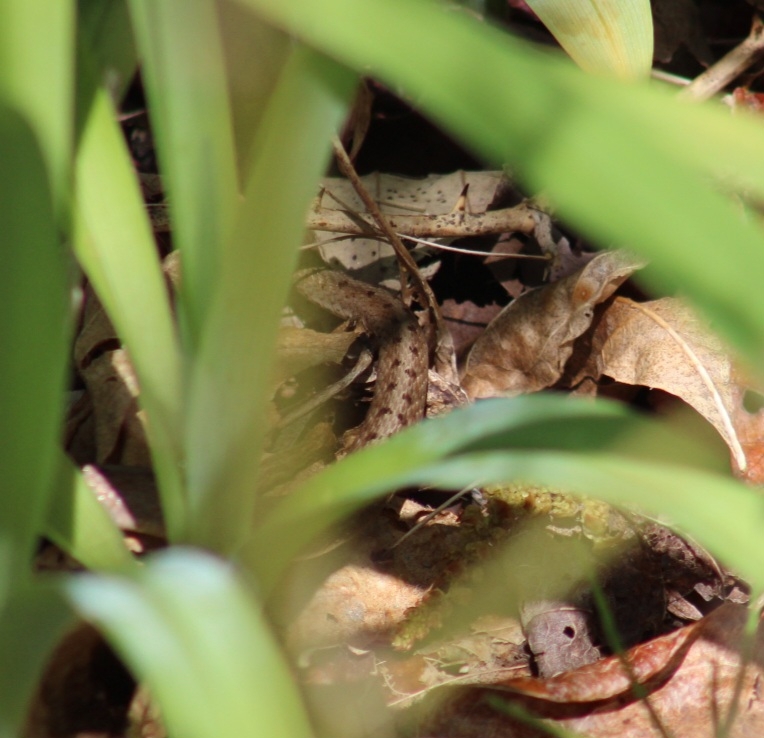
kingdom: Animalia
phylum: Chordata
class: Squamata
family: Colubridae
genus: Storeria
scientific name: Storeria dekayi
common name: (dekay’s) brown snake
